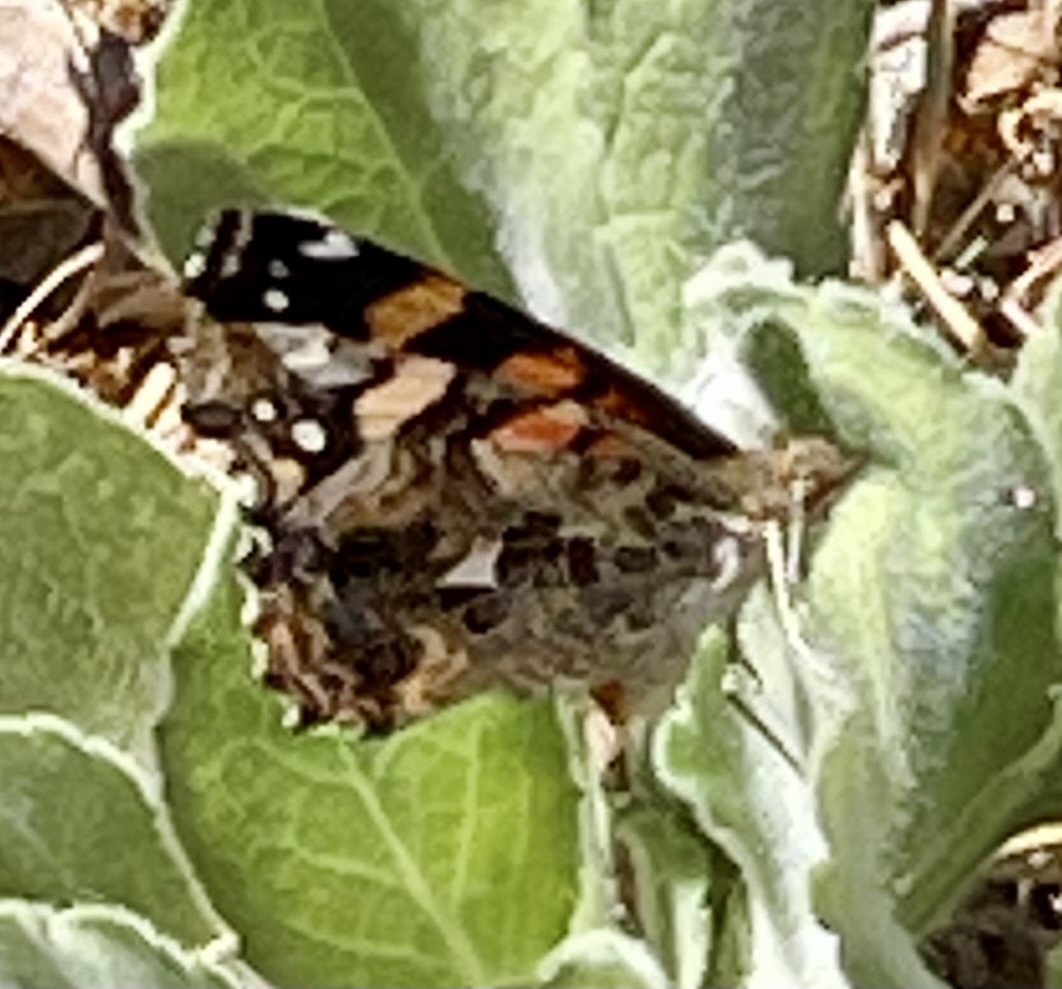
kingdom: Animalia
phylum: Arthropoda
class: Insecta
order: Lepidoptera
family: Nymphalidae
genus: Vanessa
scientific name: Vanessa annabella
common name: West coast lady
